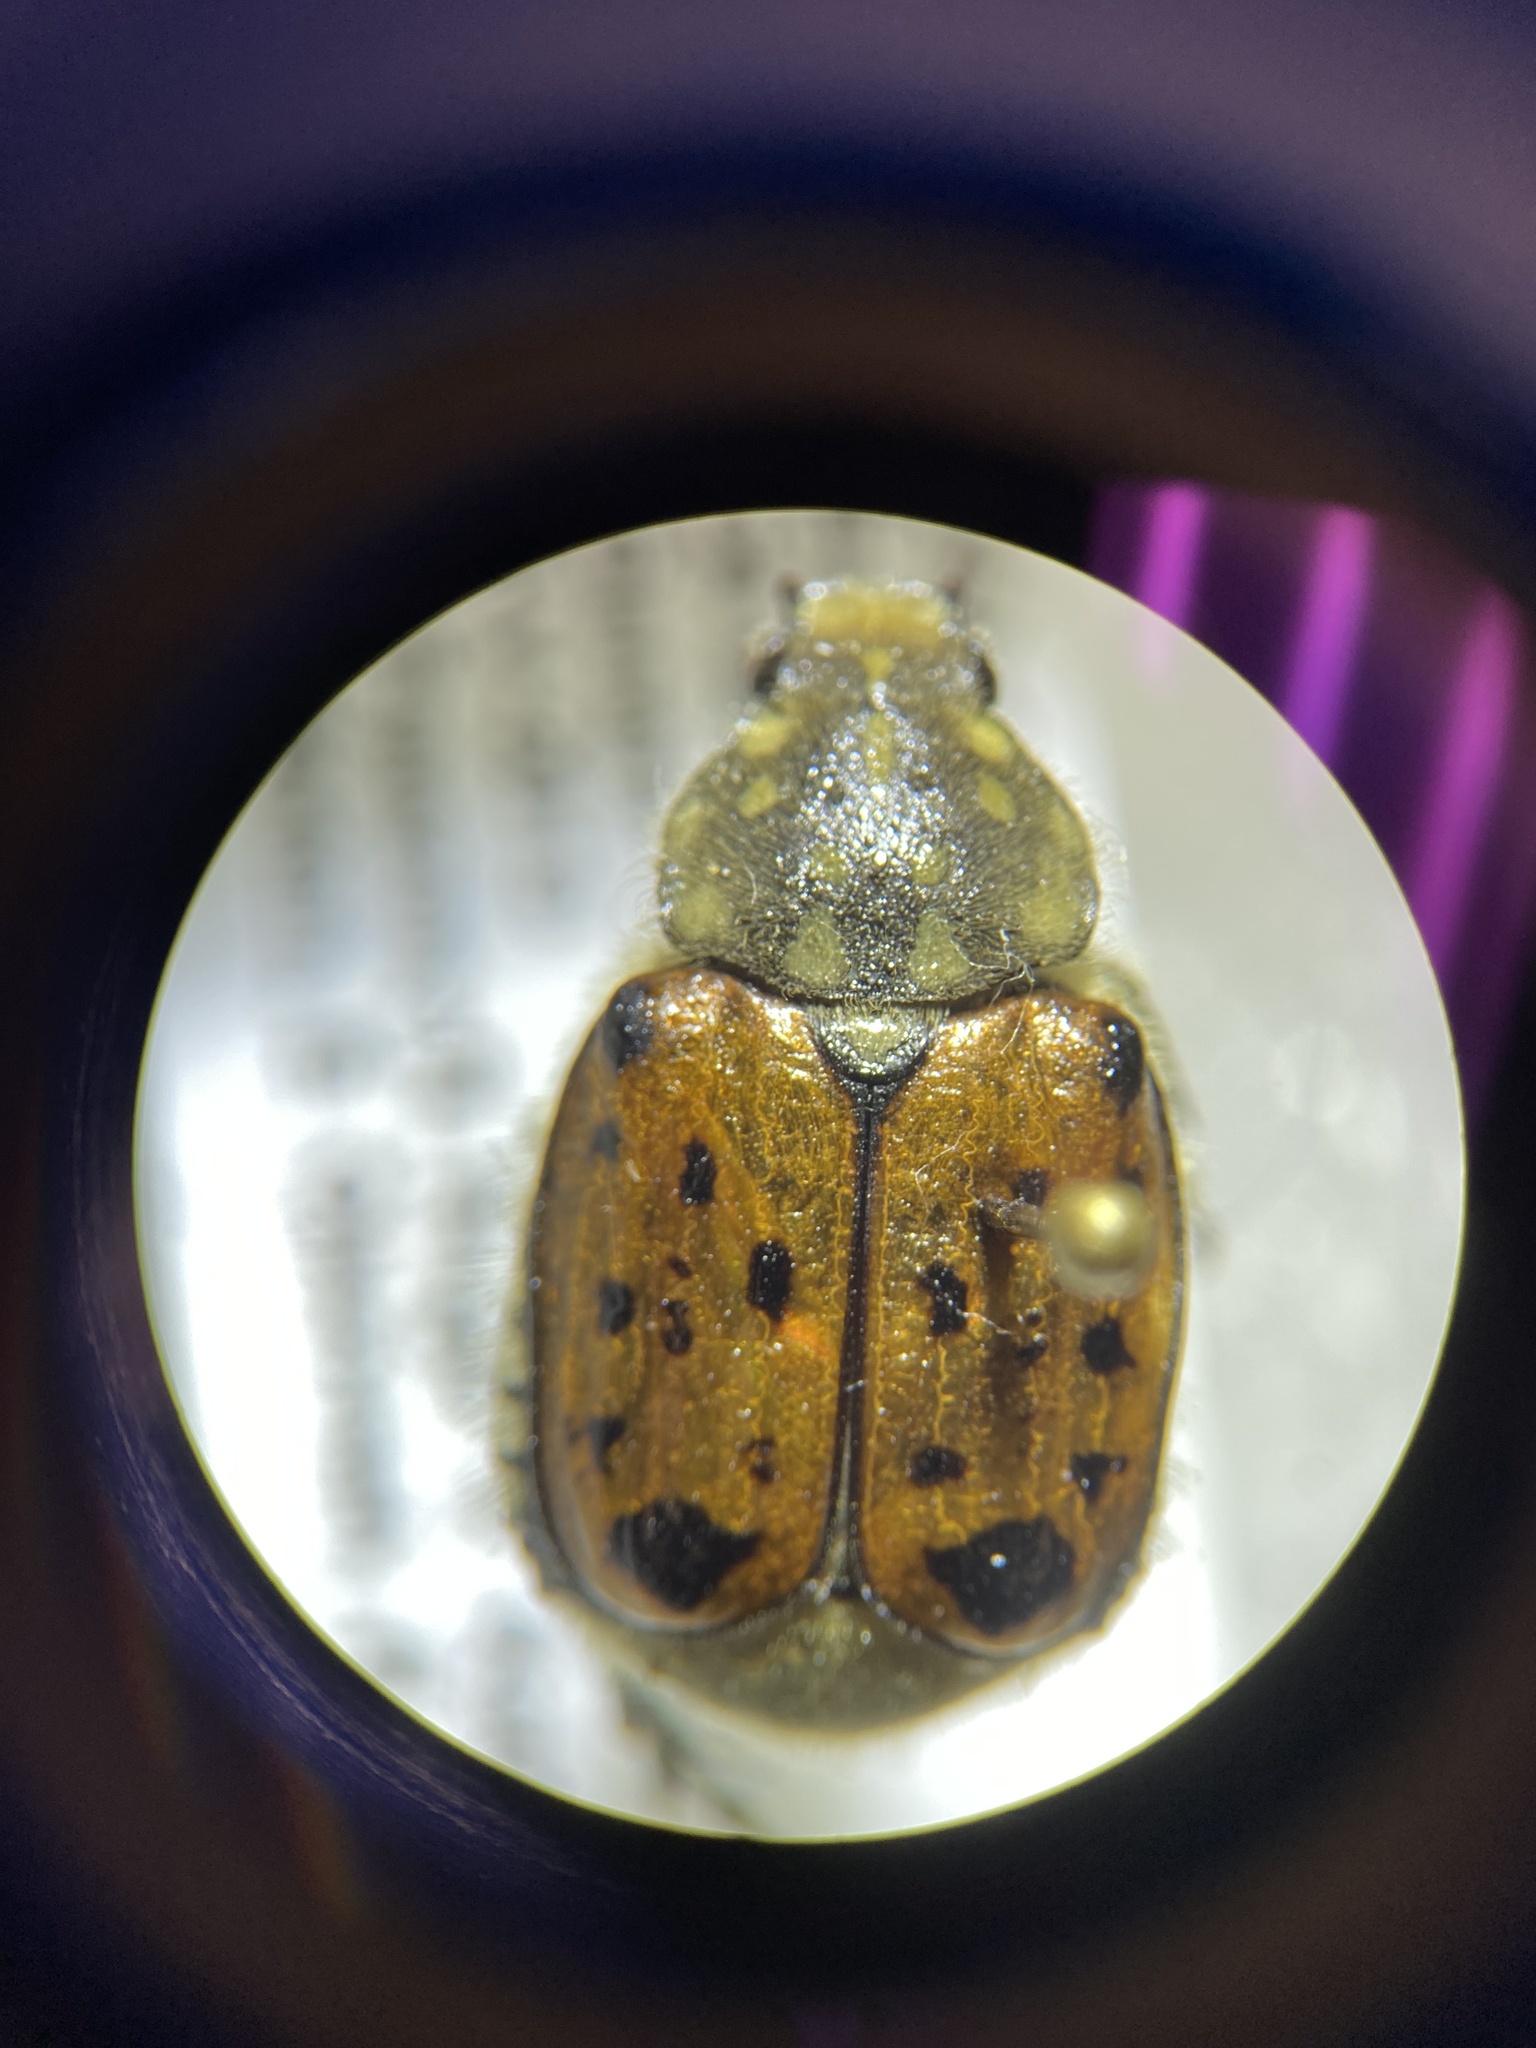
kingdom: Animalia
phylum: Arthropoda
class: Insecta
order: Coleoptera
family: Scarabaeidae
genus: Gnorimella
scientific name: Gnorimella maculosa
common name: Maculate flower beetle
